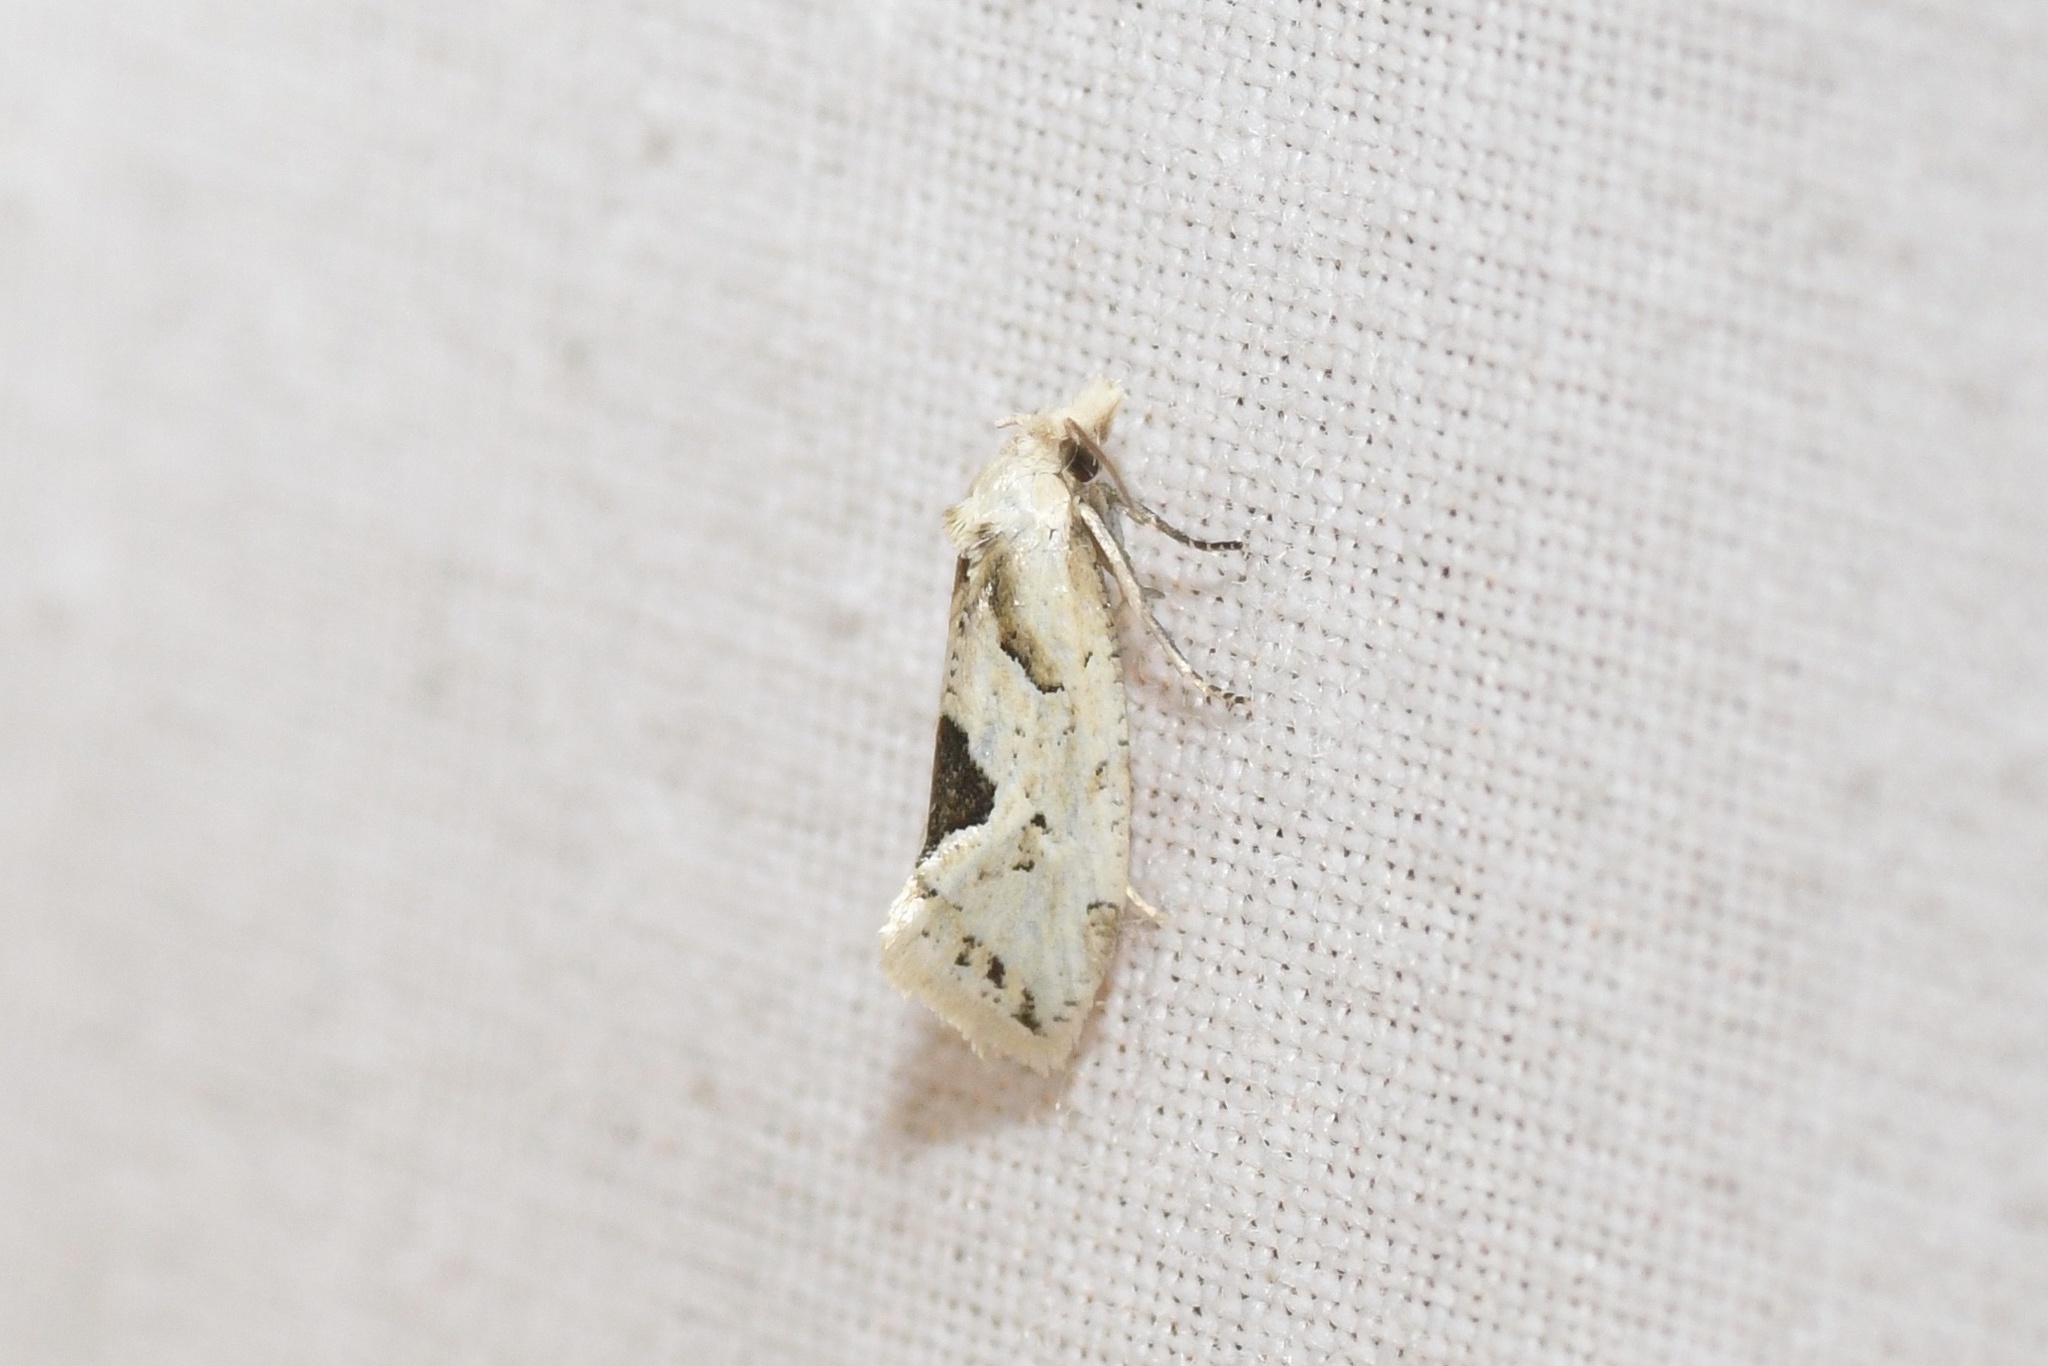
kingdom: Animalia
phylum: Arthropoda
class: Insecta
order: Lepidoptera
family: Tortricidae
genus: Aethes
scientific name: Aethes mymara
